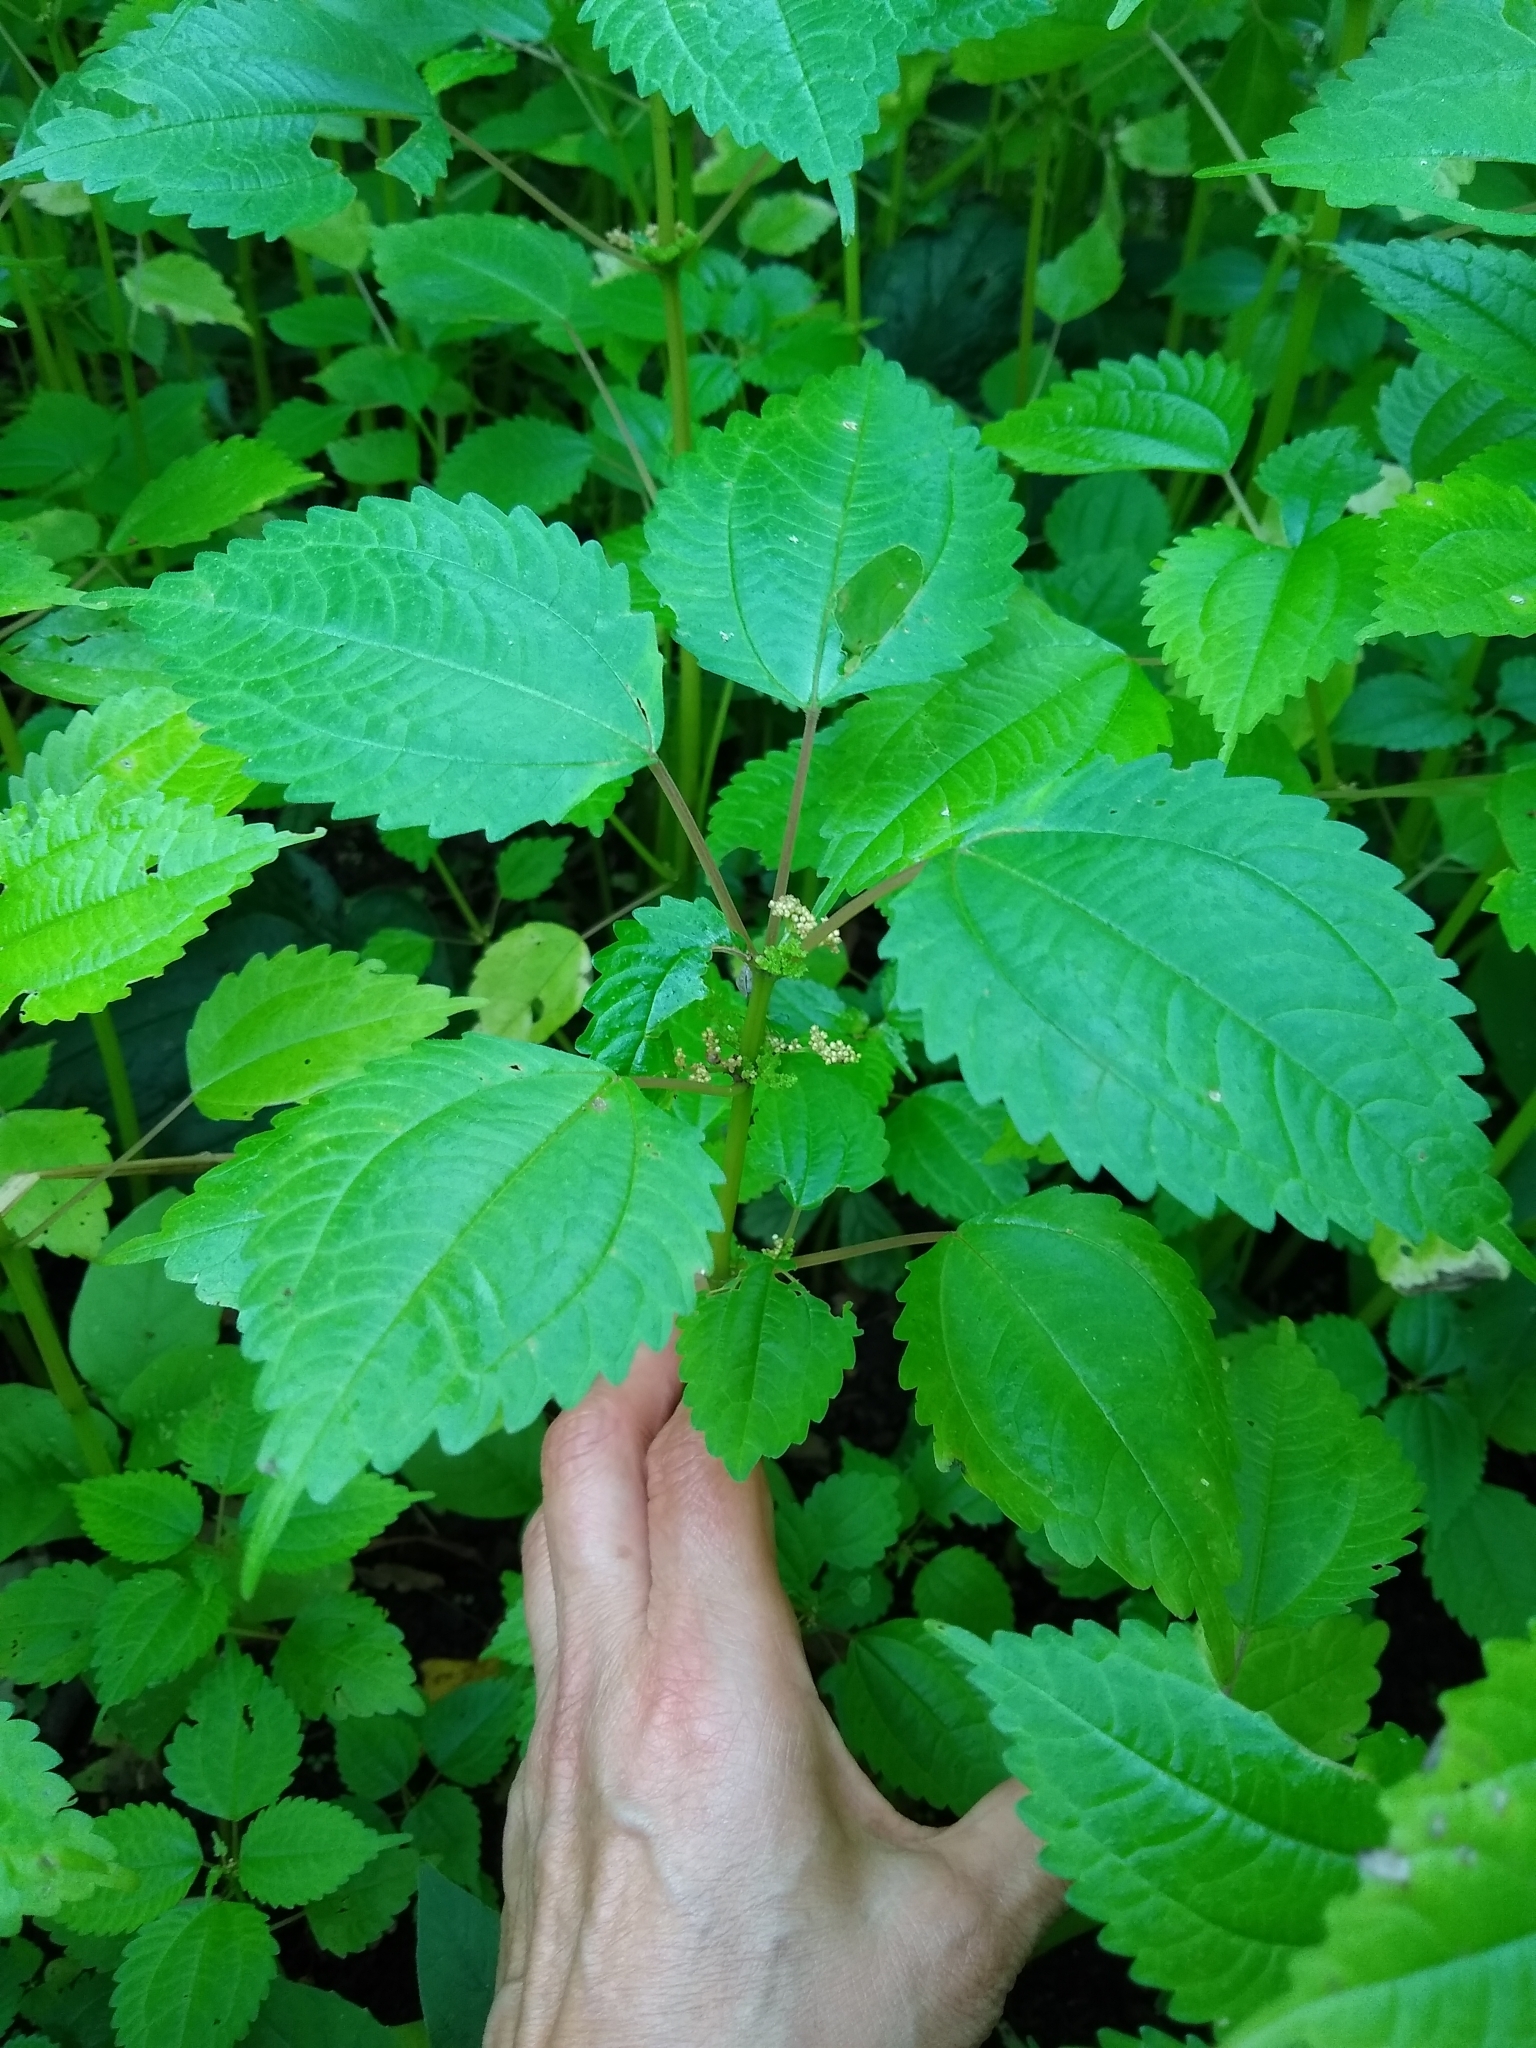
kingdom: Plantae
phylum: Tracheophyta
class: Magnoliopsida
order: Rosales
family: Urticaceae
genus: Pilea
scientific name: Pilea pumila
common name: Clearweed
